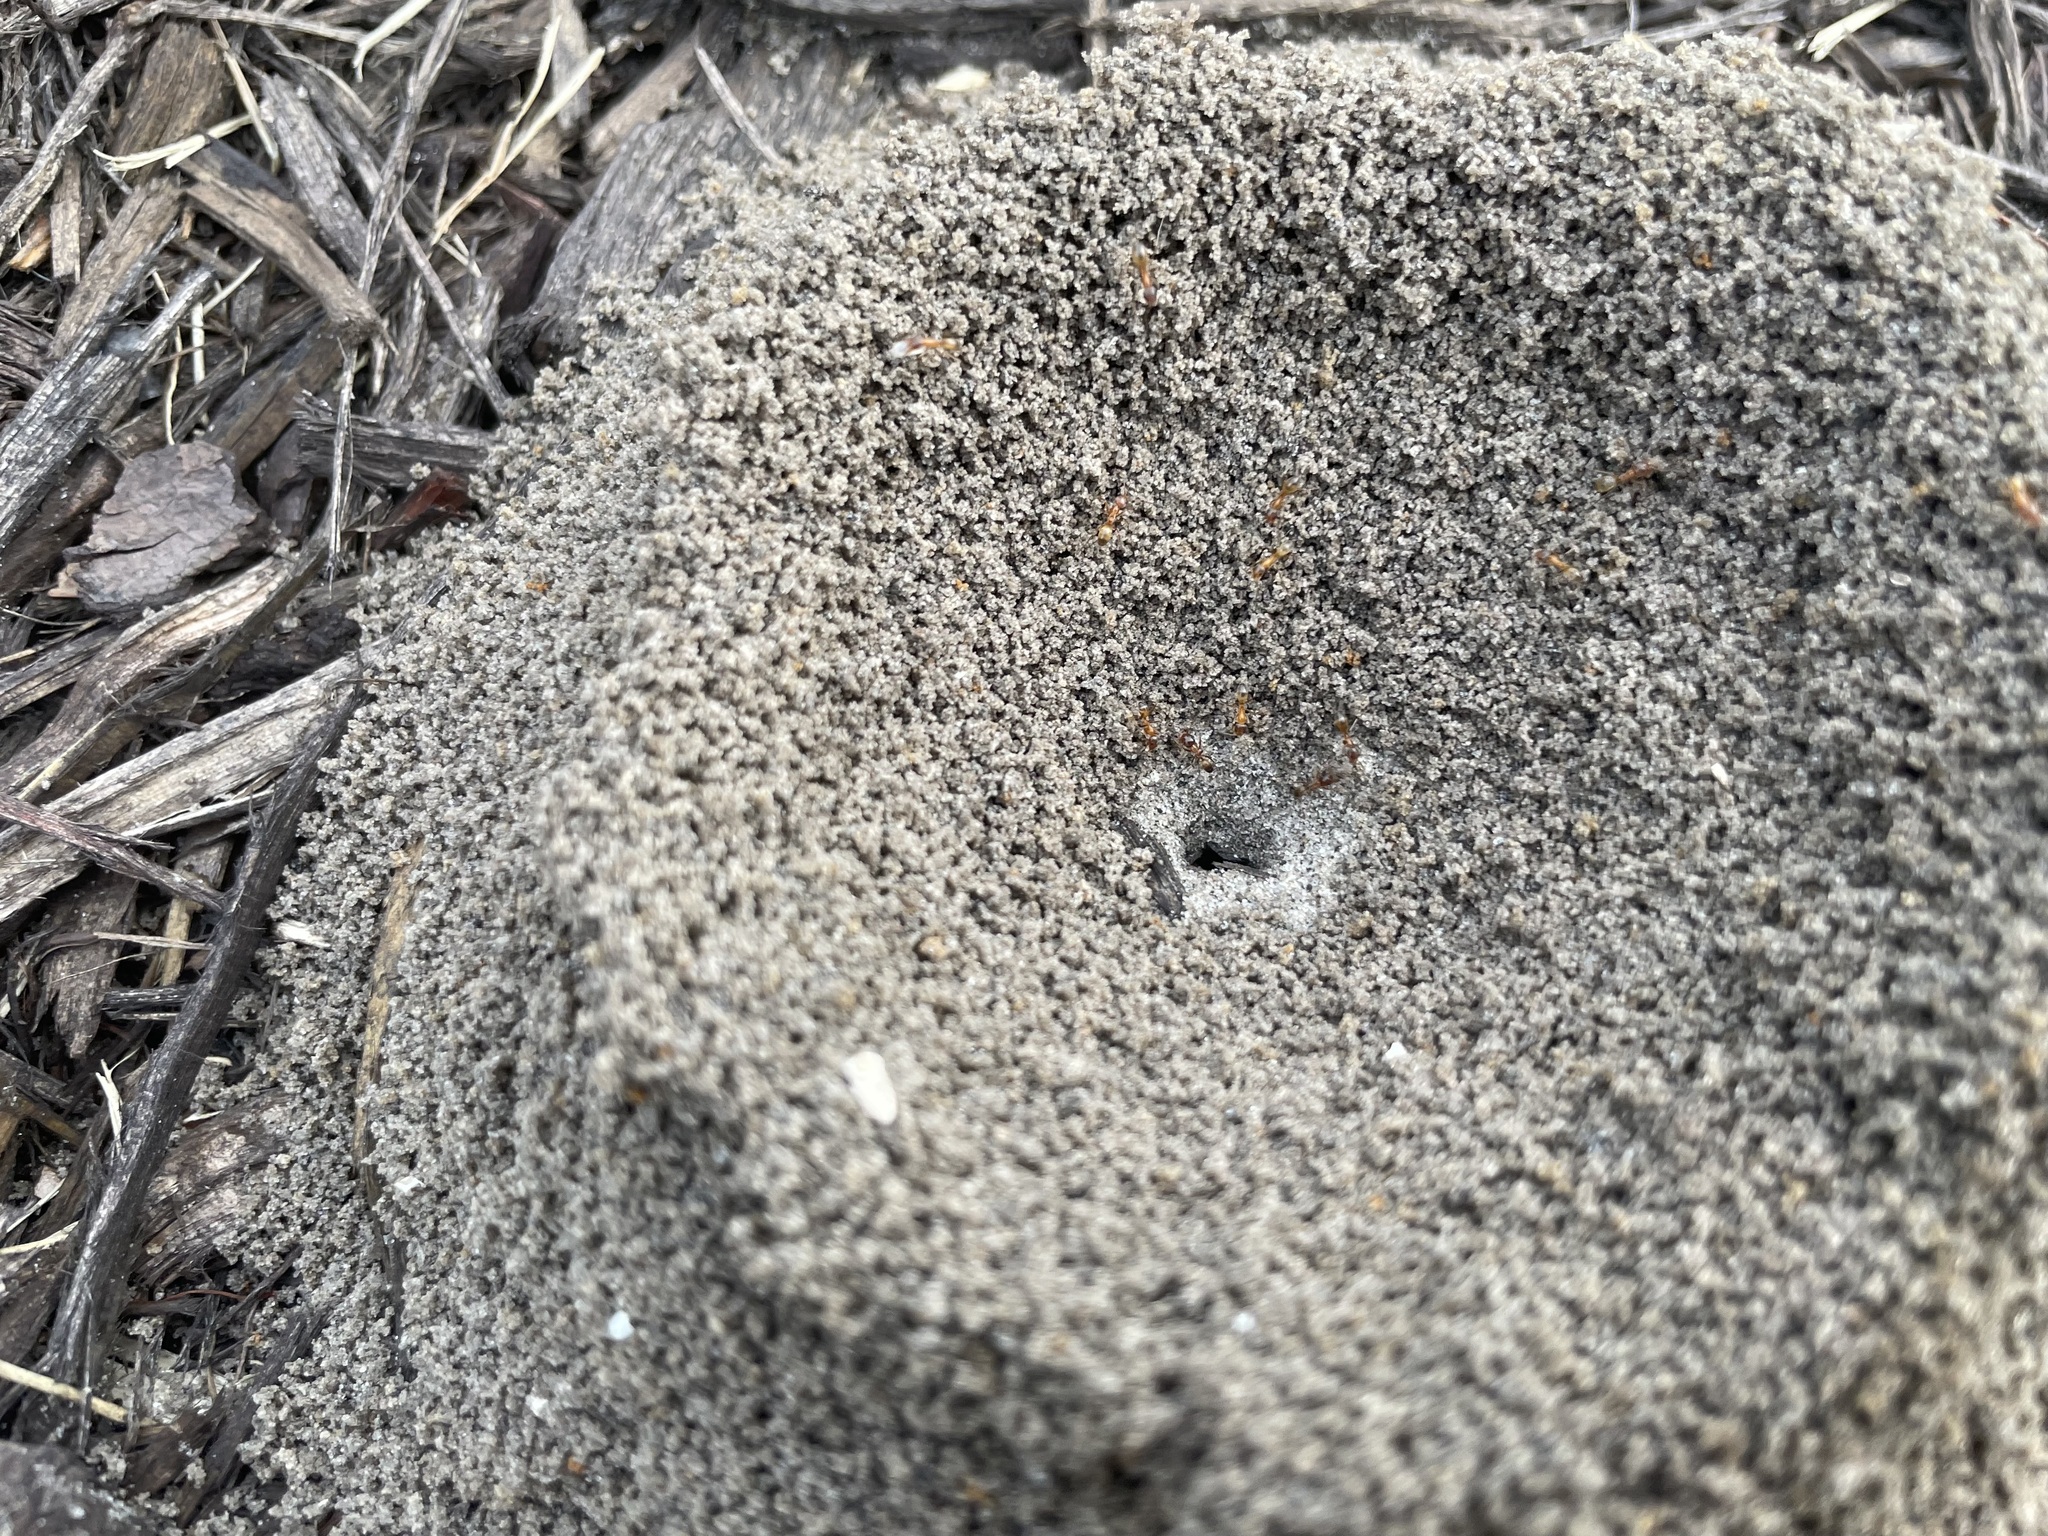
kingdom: Animalia
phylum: Arthropoda
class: Insecta
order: Hymenoptera
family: Formicidae
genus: Dorymyrmex
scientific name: Dorymyrmex bureni
